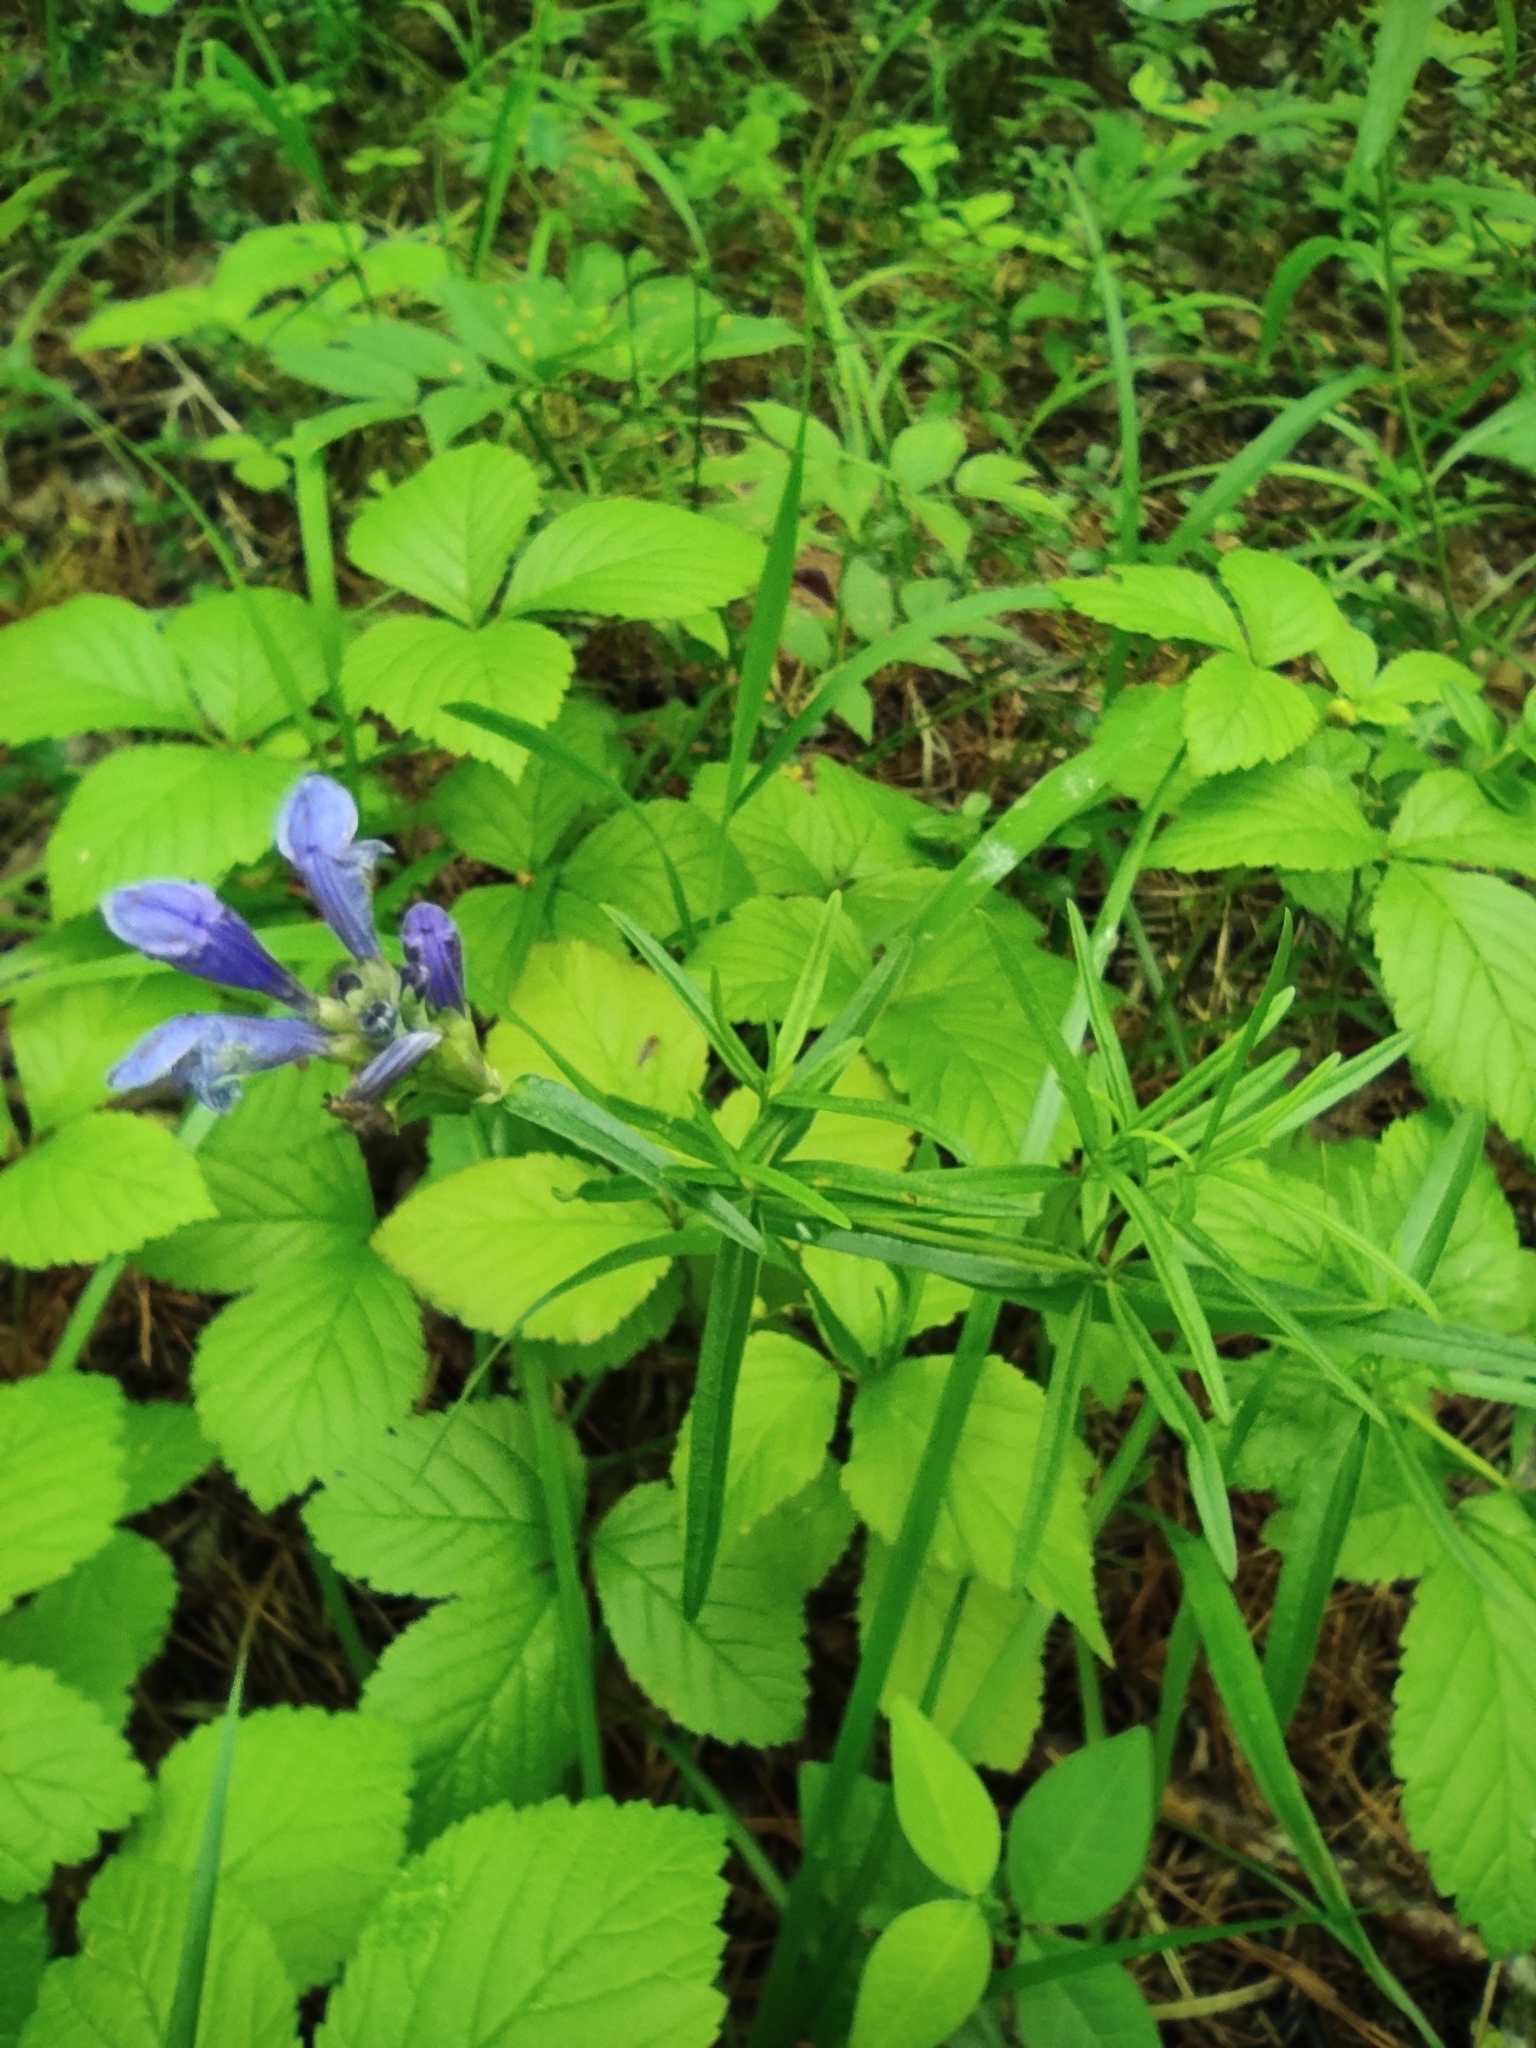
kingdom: Plantae
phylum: Tracheophyta
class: Magnoliopsida
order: Lamiales
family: Lamiaceae
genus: Dracocephalum
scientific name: Dracocephalum ruyschiana
